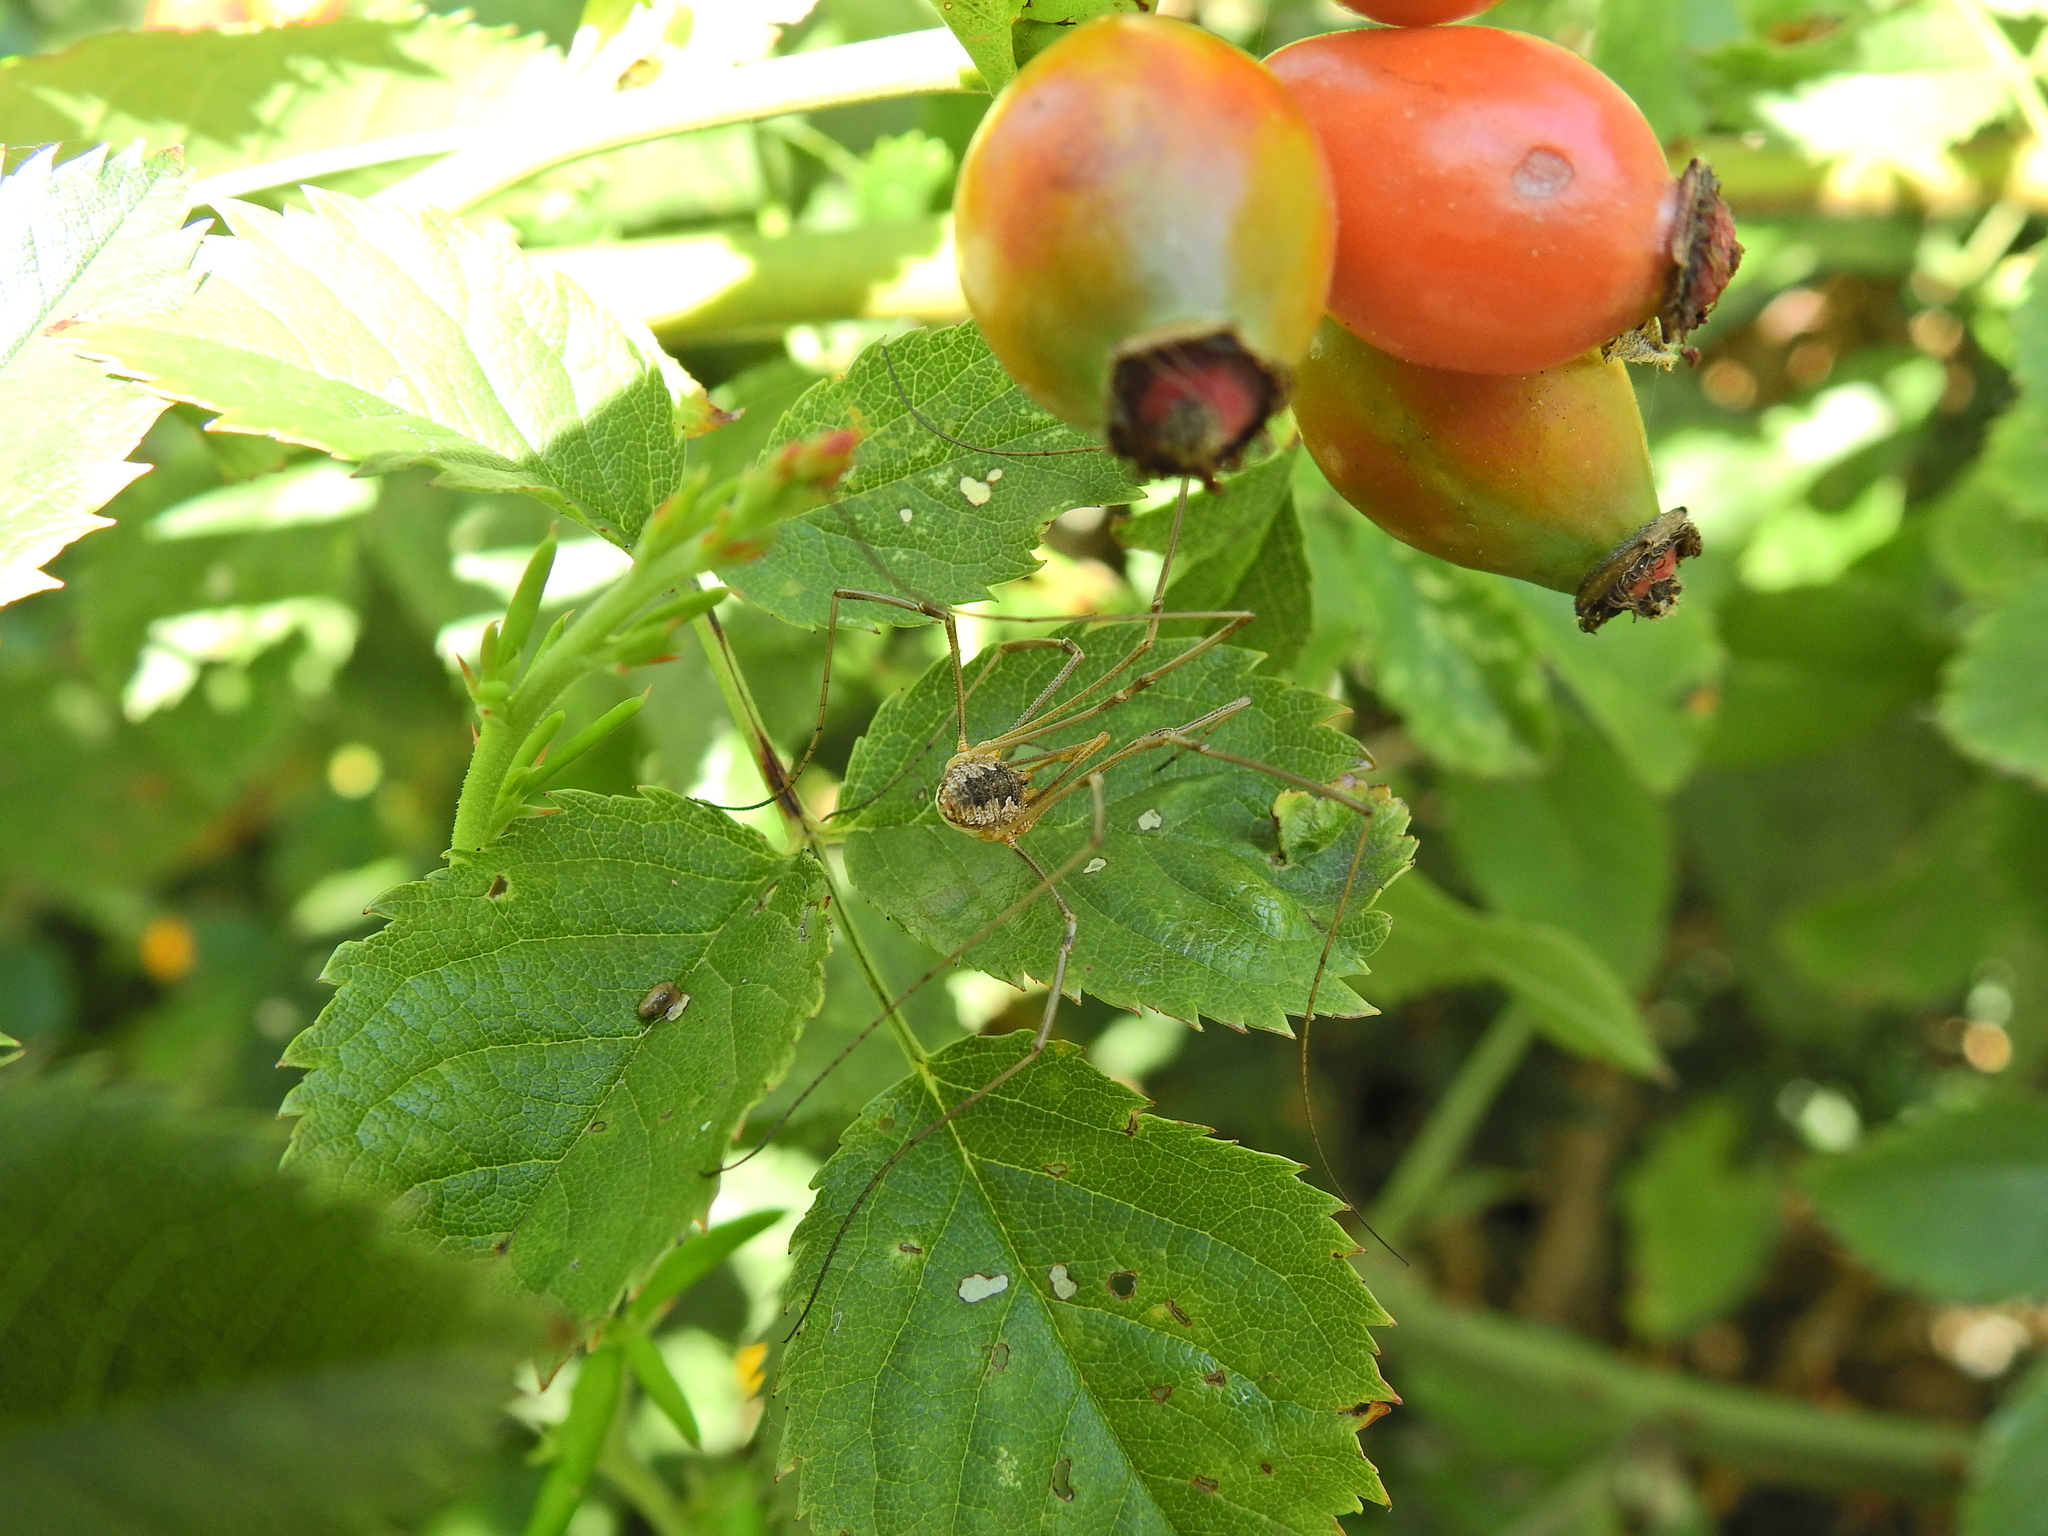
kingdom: Animalia
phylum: Arthropoda
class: Arachnida
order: Opiliones
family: Phalangiidae
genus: Phalangium
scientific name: Phalangium opilio
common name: Daddy longleg
